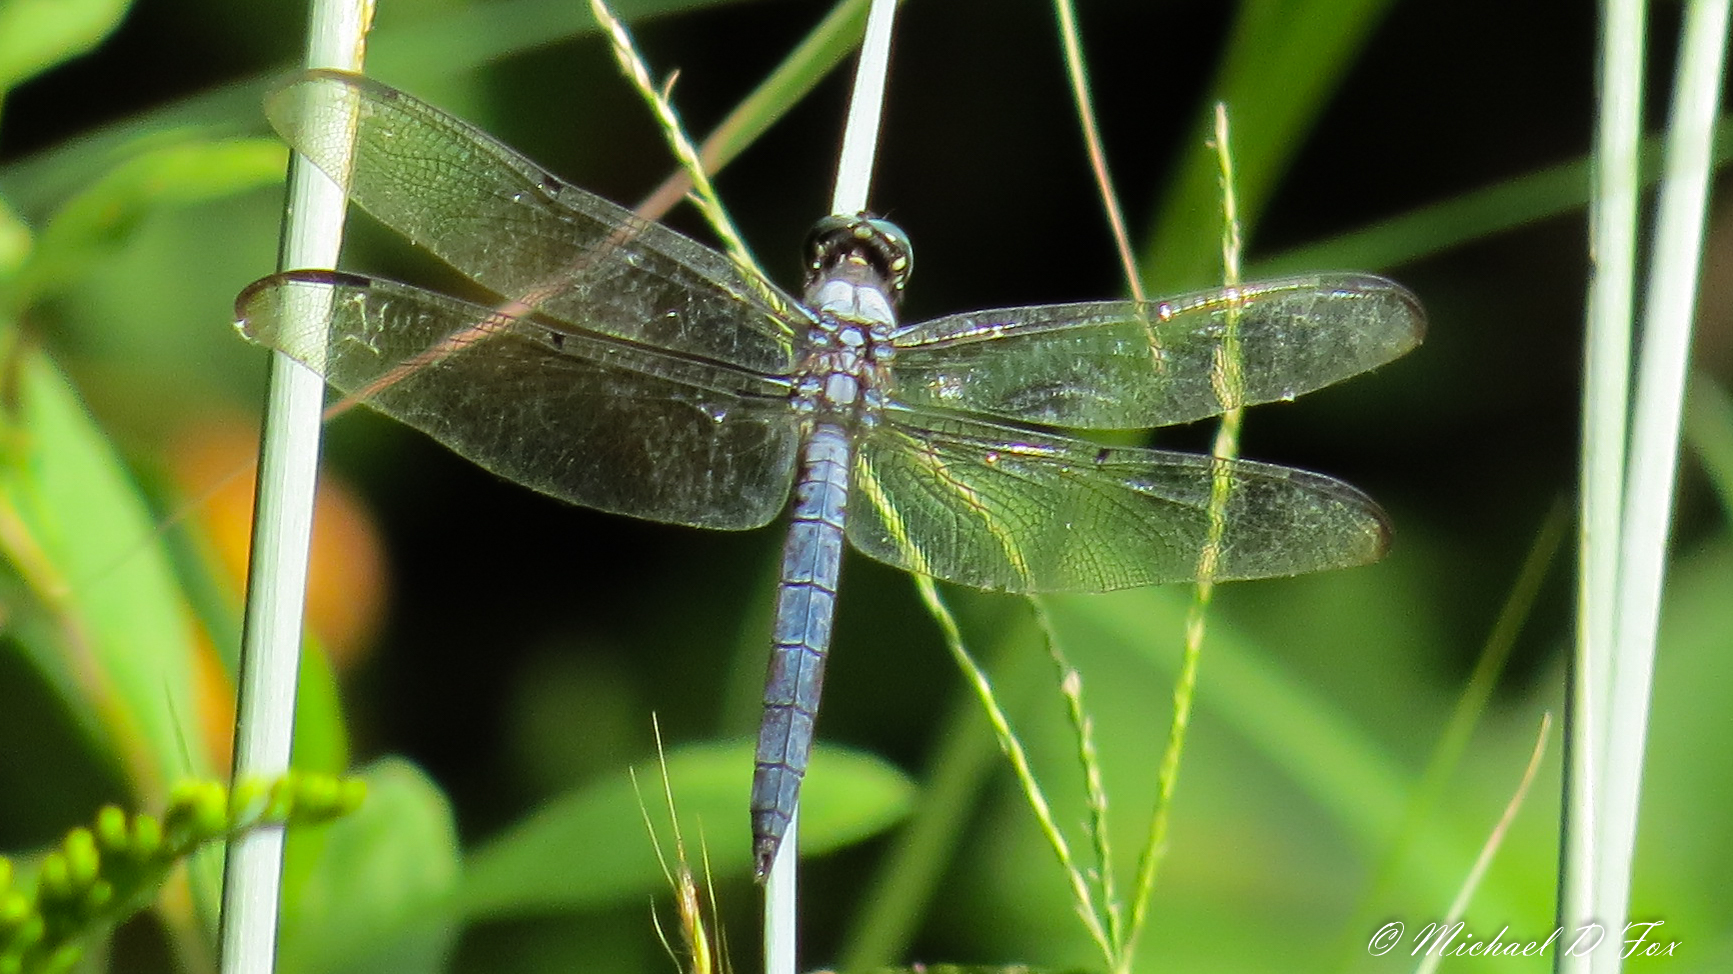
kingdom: Animalia
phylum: Arthropoda
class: Insecta
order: Odonata
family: Libellulidae
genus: Erythemis
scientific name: Erythemis simplicicollis
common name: Eastern pondhawk
